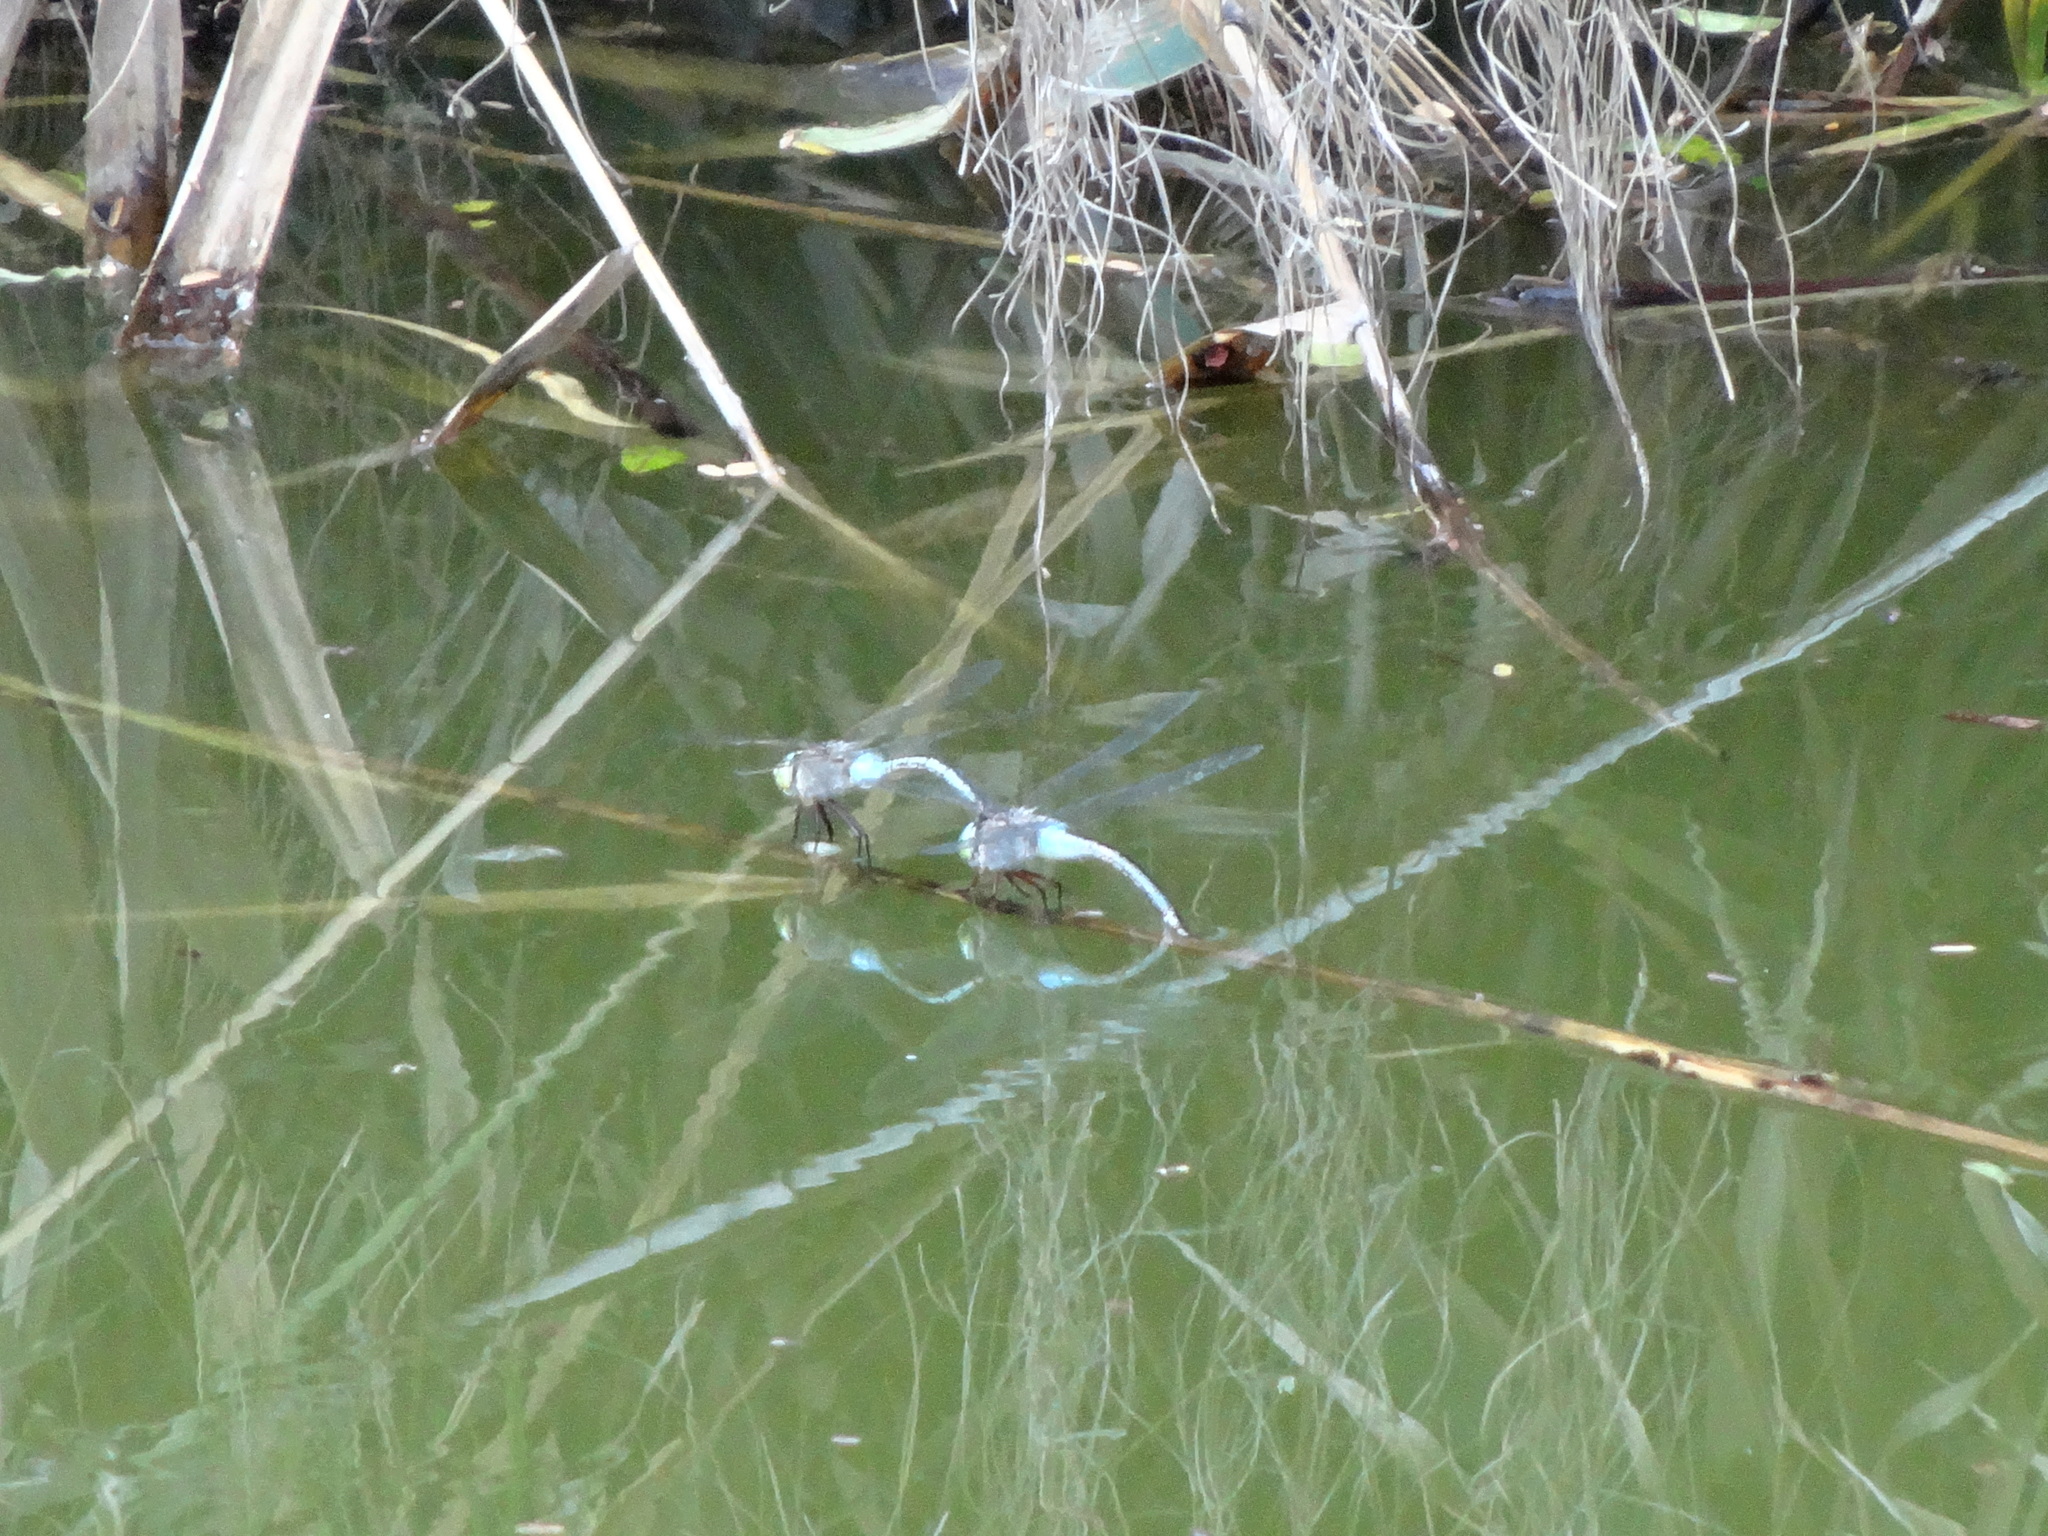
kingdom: Animalia
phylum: Arthropoda
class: Insecta
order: Odonata
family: Aeshnidae
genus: Anax
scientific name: Anax parthenope
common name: Lesser emperor
